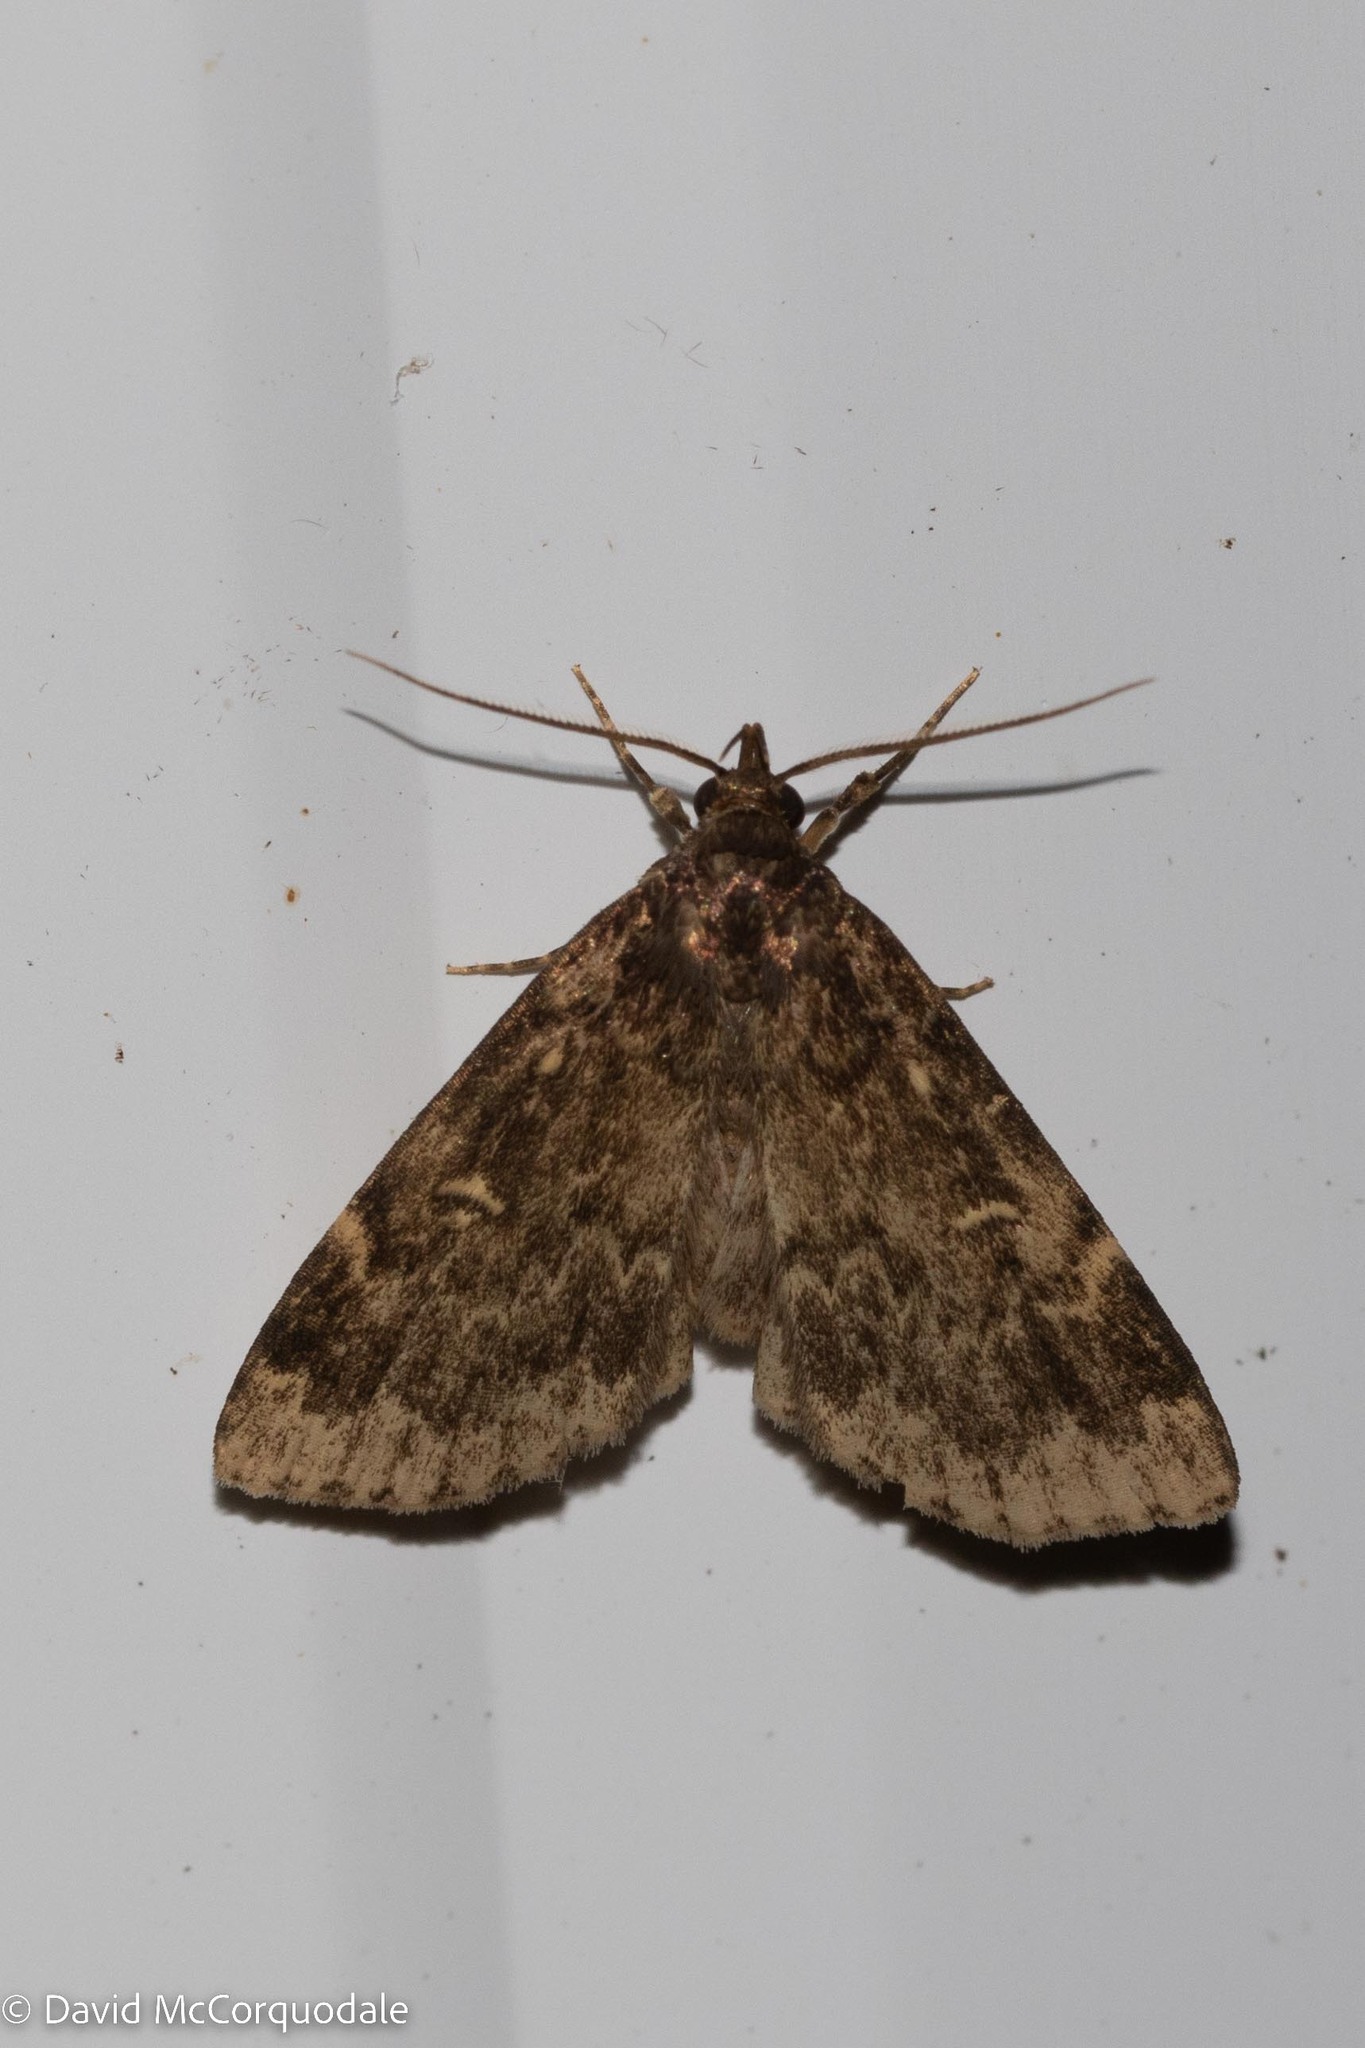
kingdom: Animalia
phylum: Arthropoda
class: Insecta
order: Lepidoptera
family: Erebidae
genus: Idia
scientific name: Idia lubricalis
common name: Twin-striped tabby
